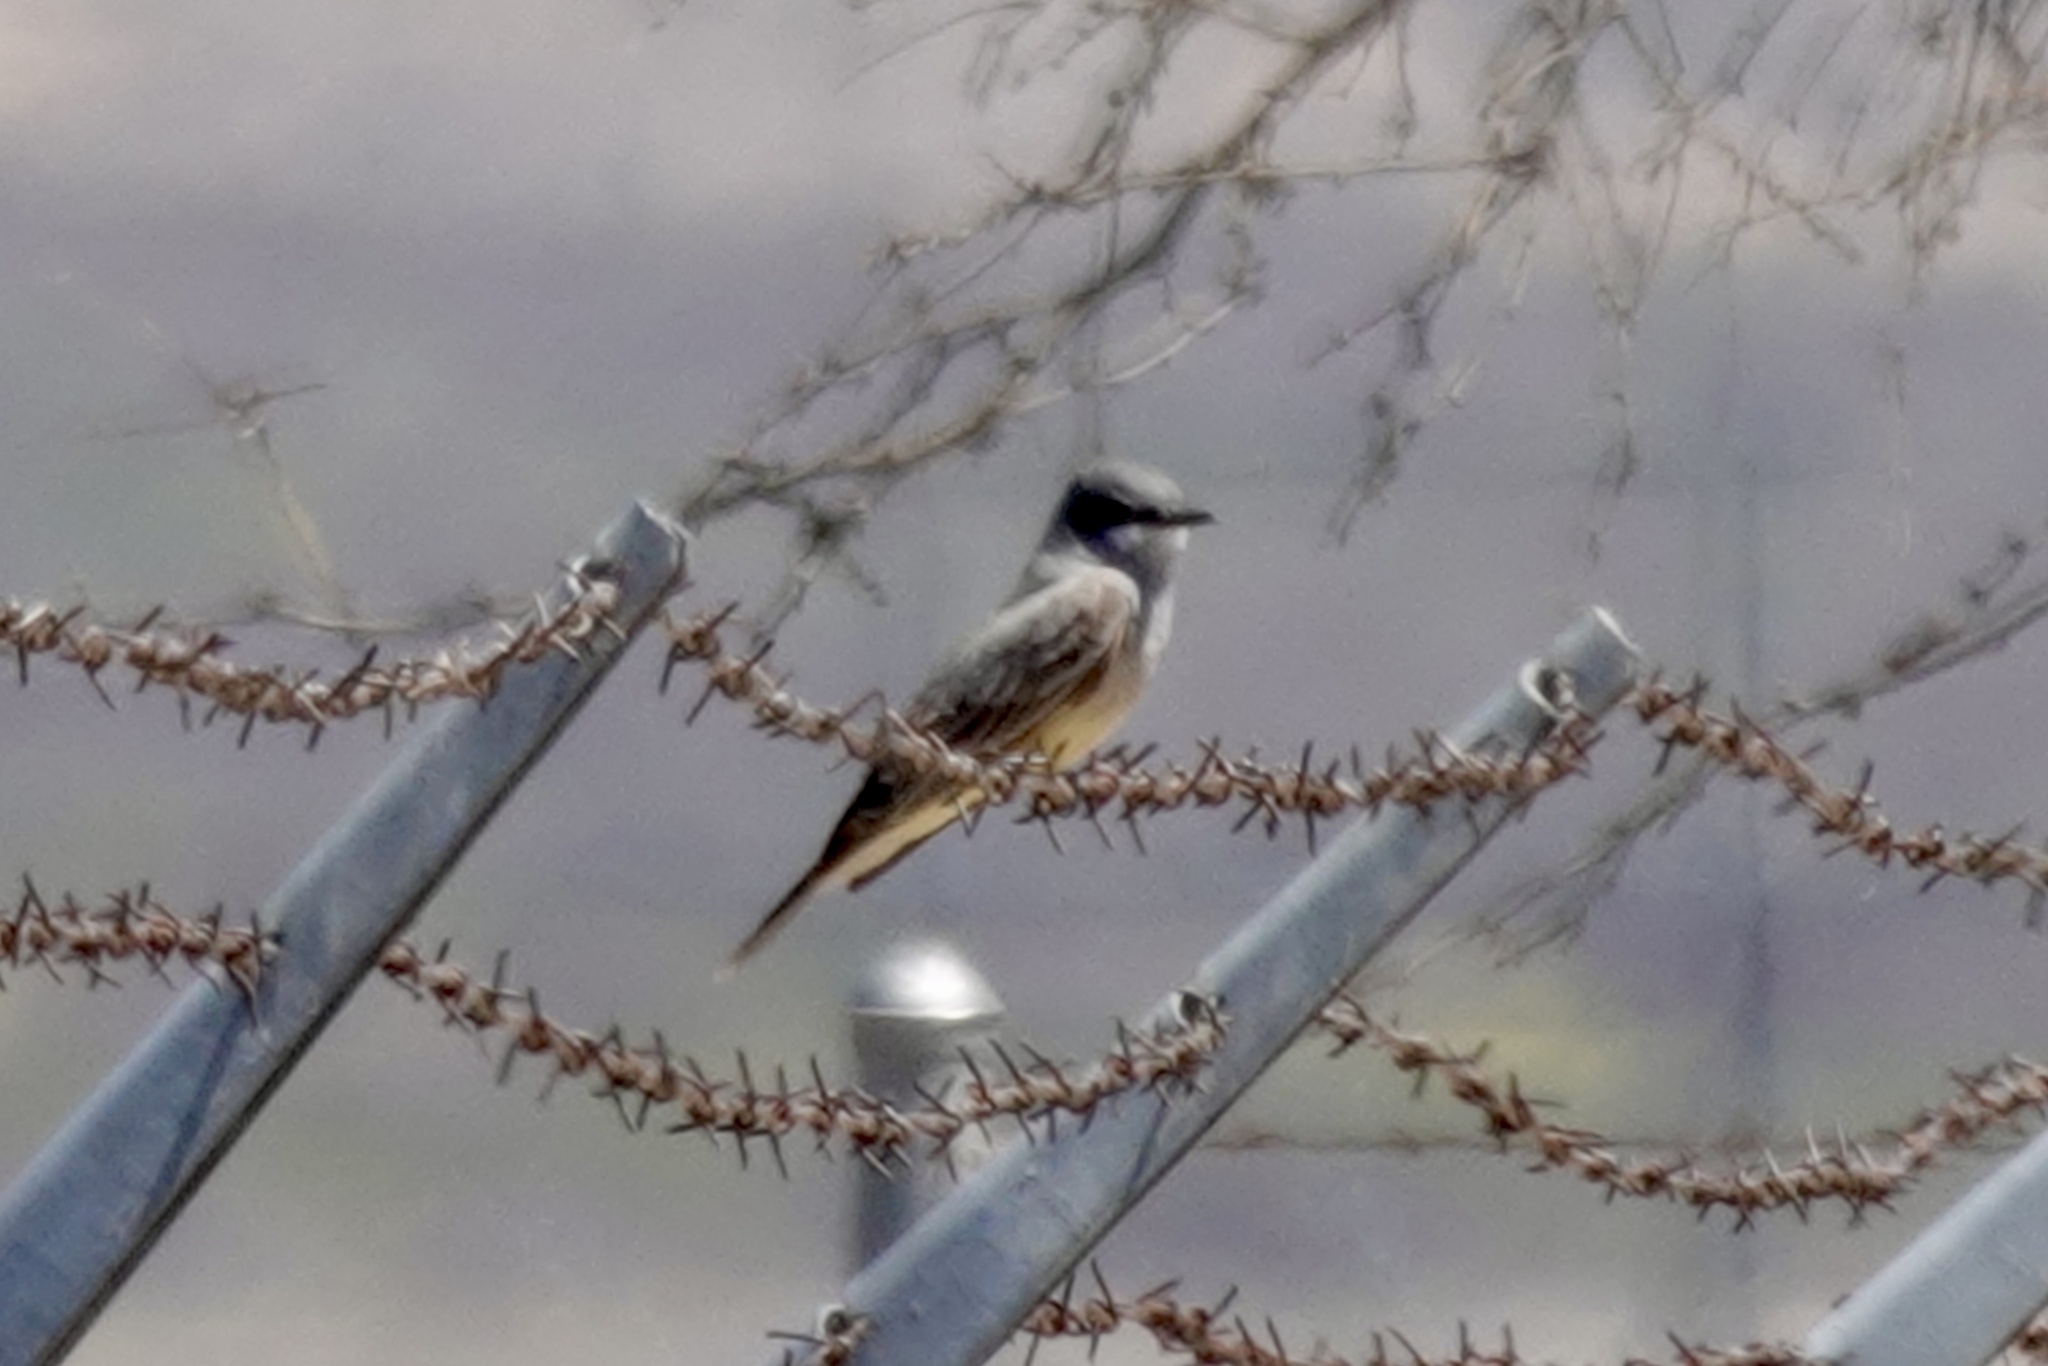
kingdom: Animalia
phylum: Chordata
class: Aves
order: Passeriformes
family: Tyrannidae
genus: Tyrannus
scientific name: Tyrannus vociferans
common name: Cassin's kingbird
